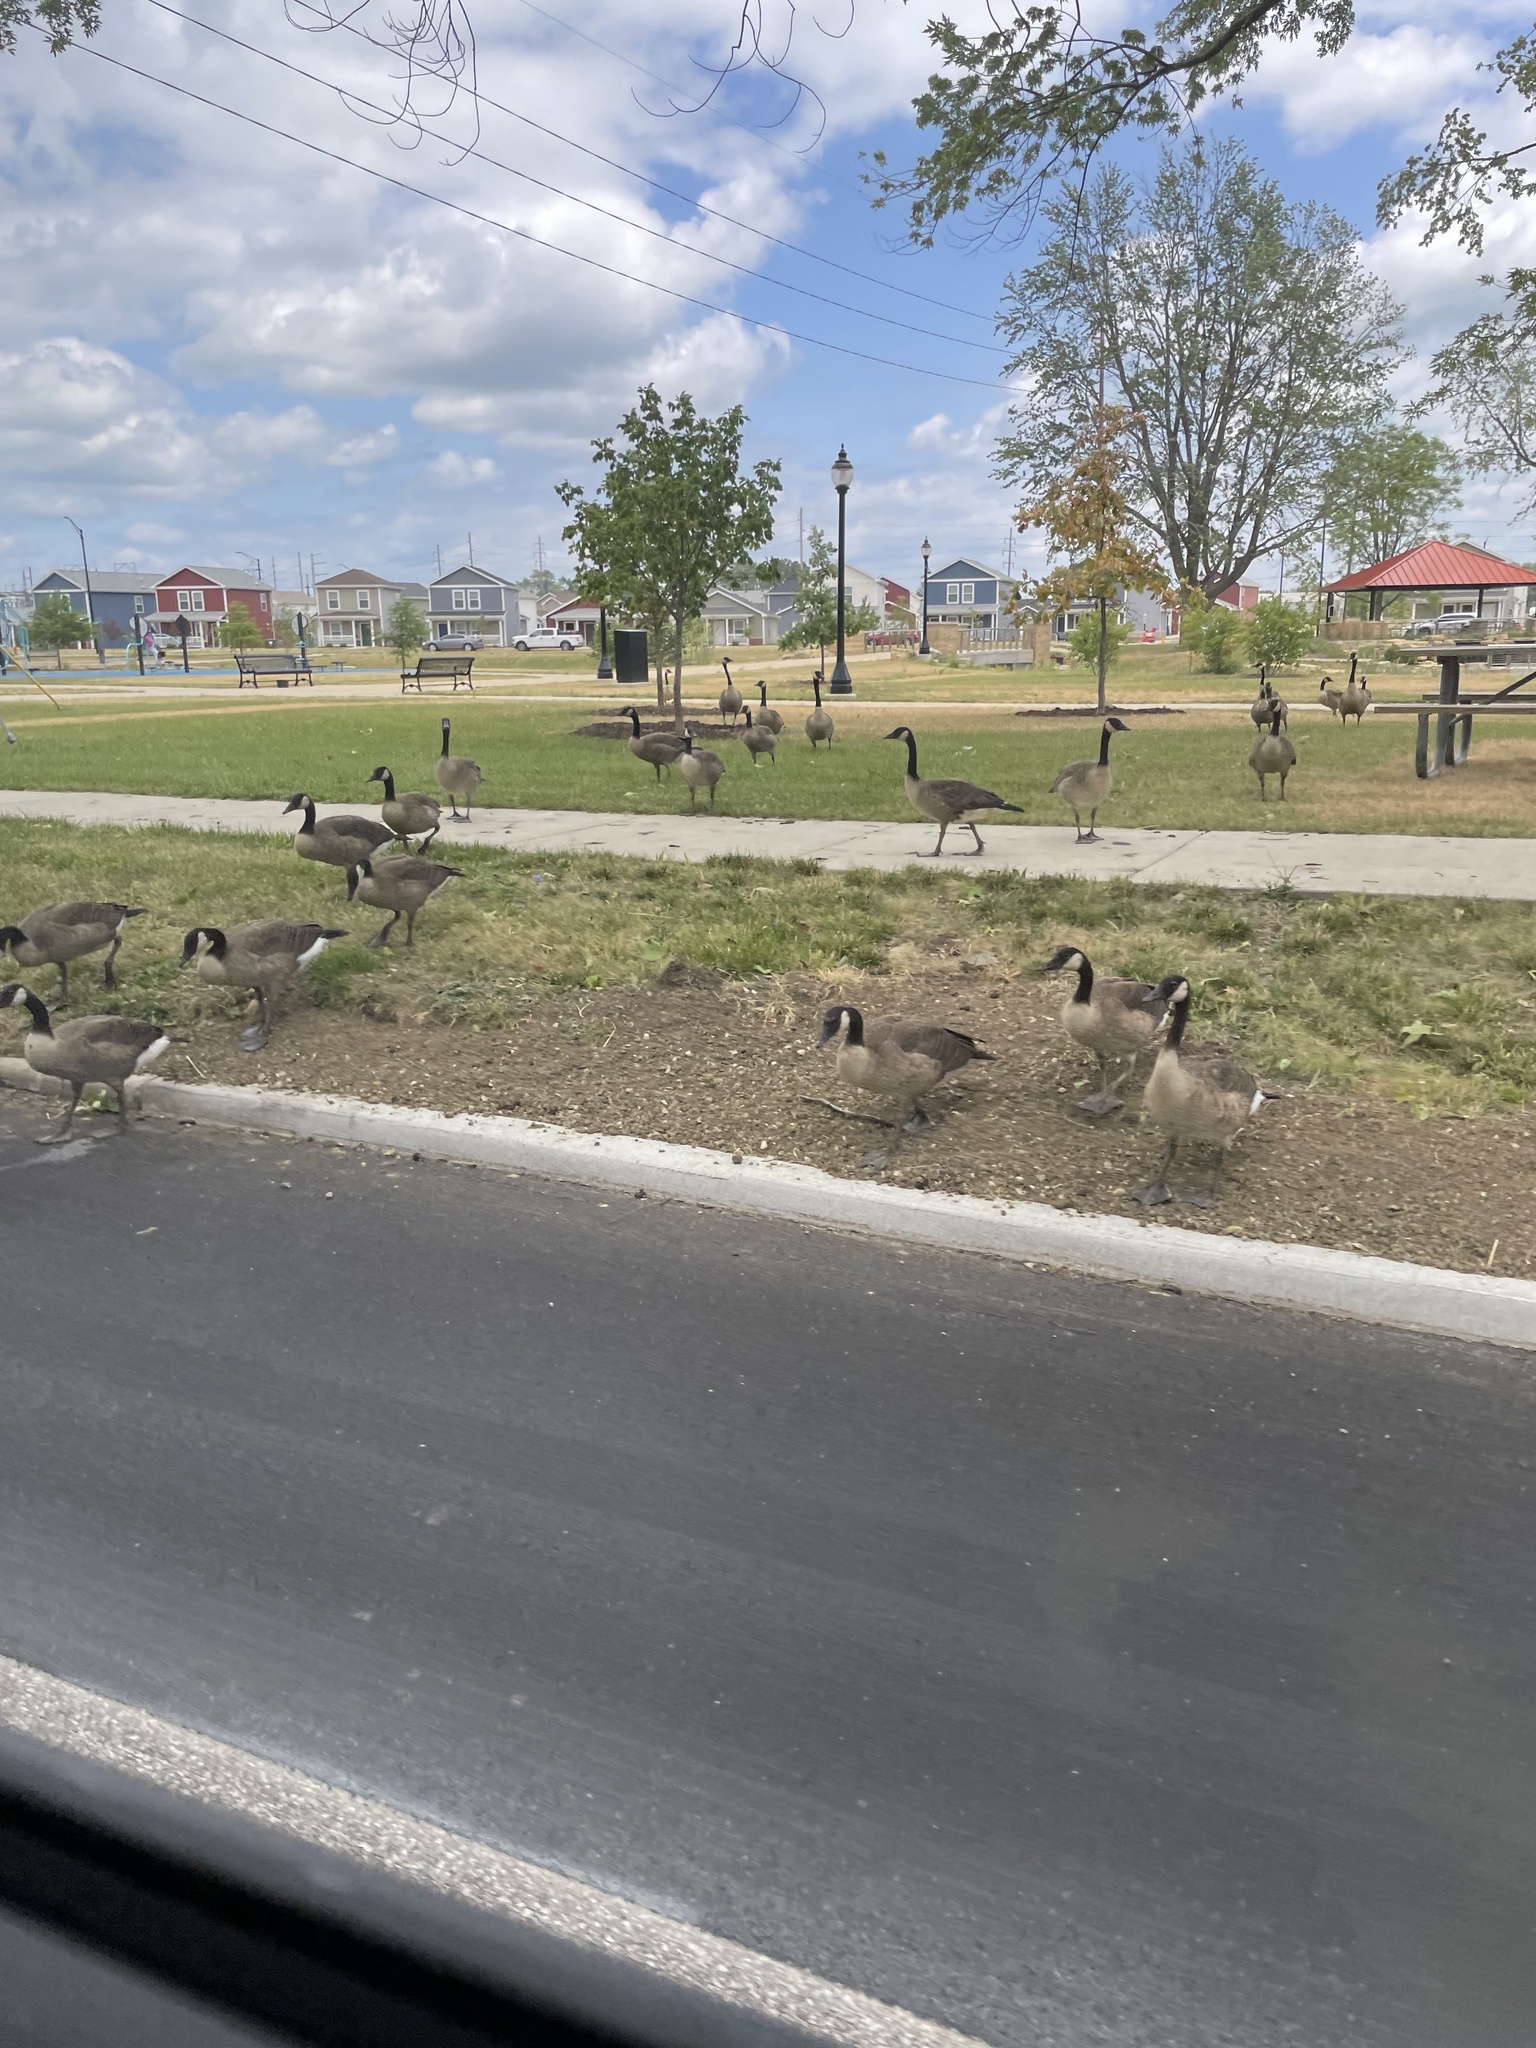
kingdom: Animalia
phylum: Chordata
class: Aves
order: Anseriformes
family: Anatidae
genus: Branta
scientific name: Branta canadensis
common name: Canada goose
